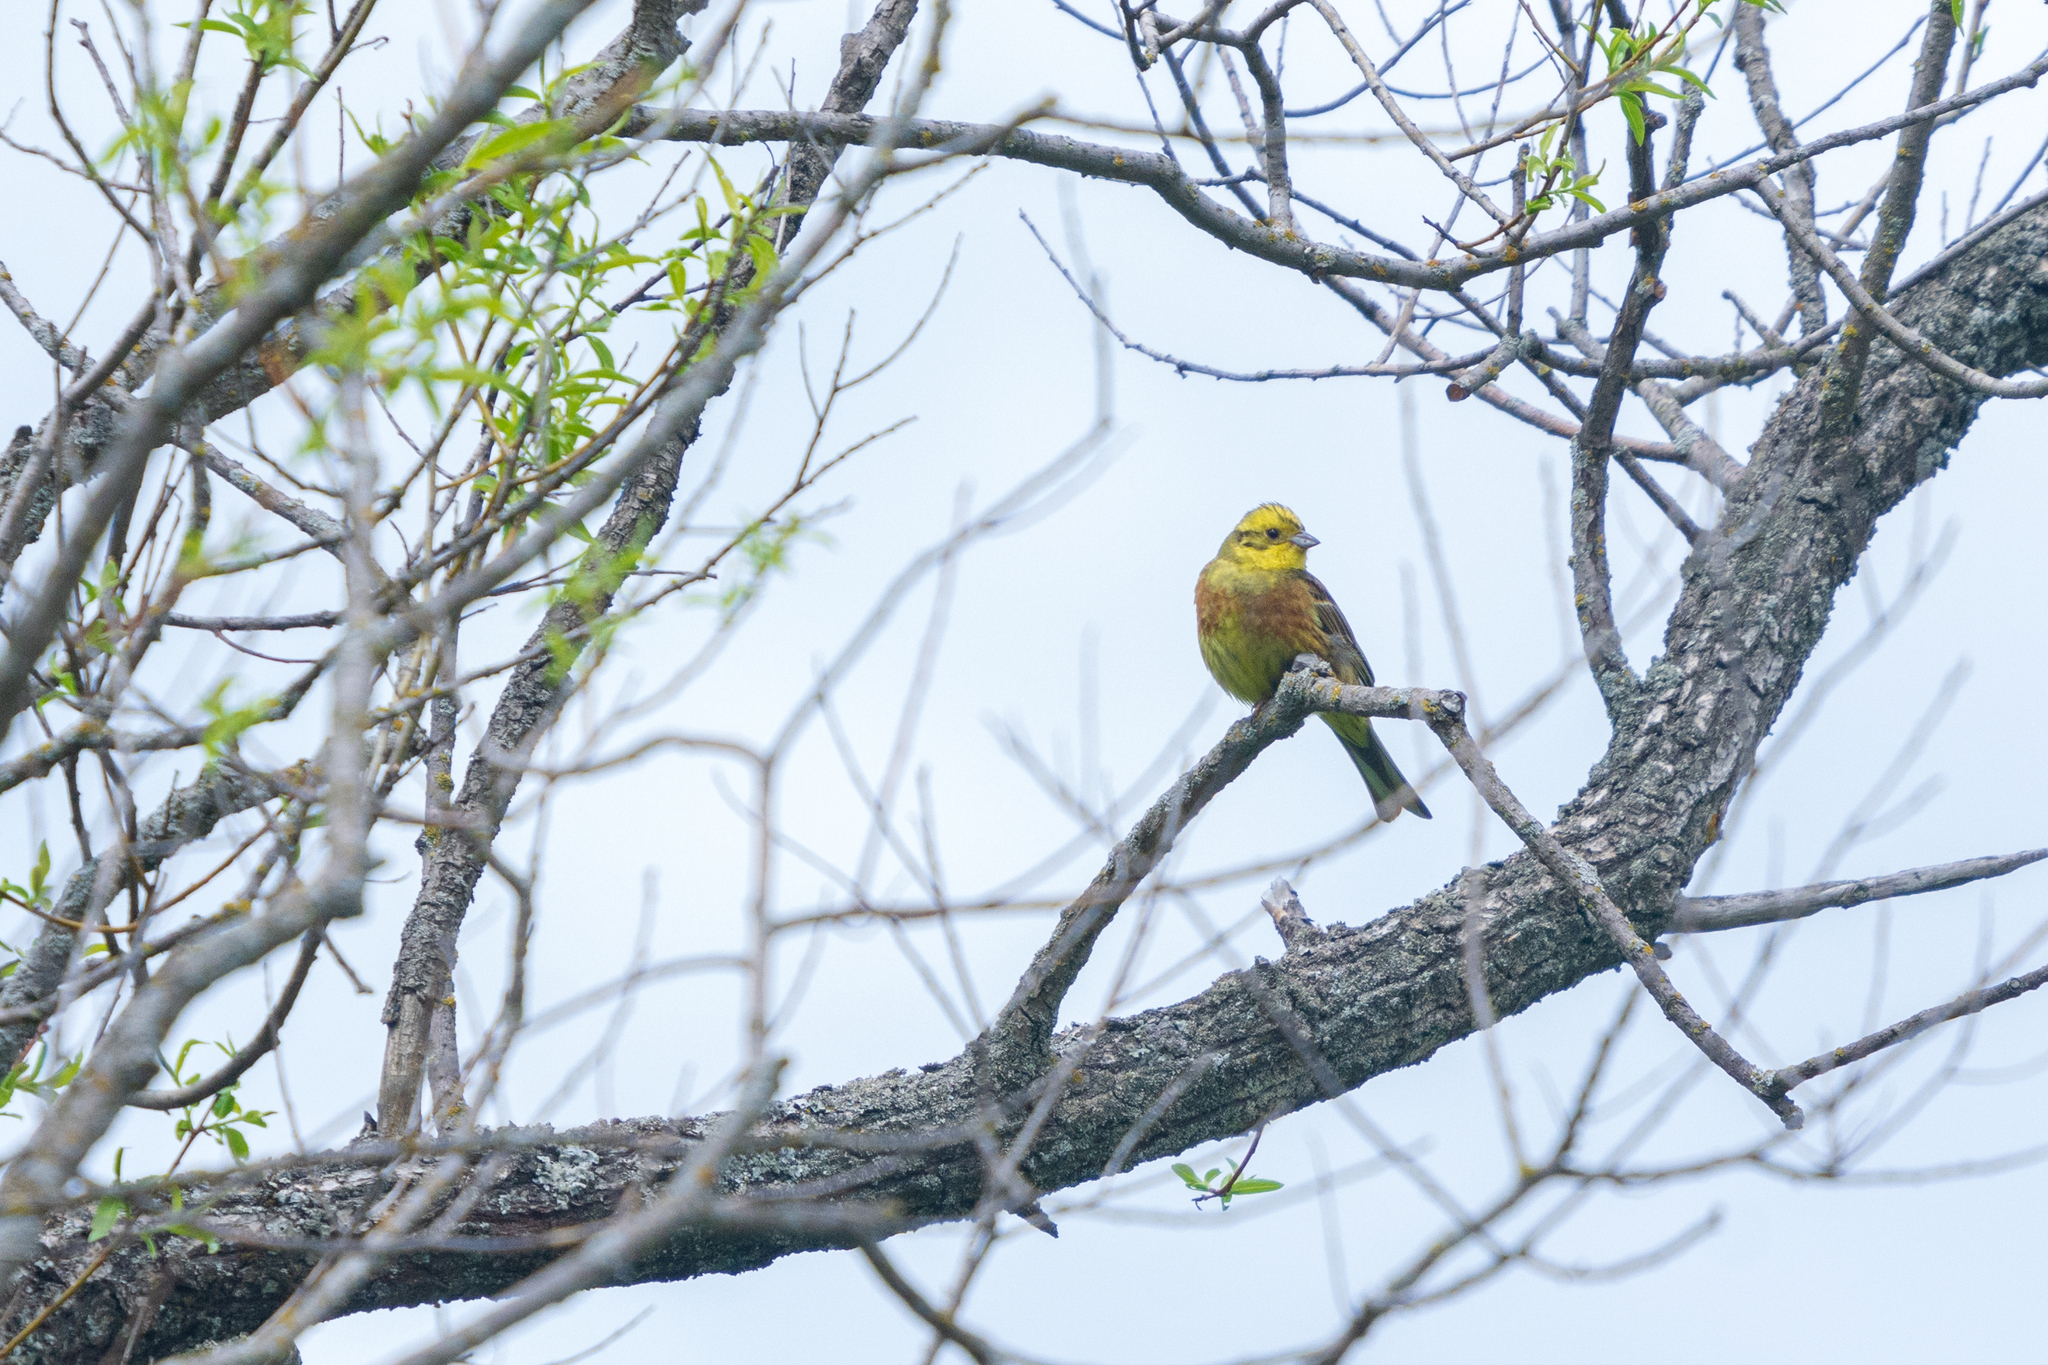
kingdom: Animalia
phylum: Chordata
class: Aves
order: Passeriformes
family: Emberizidae
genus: Emberiza
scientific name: Emberiza citrinella
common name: Yellowhammer
